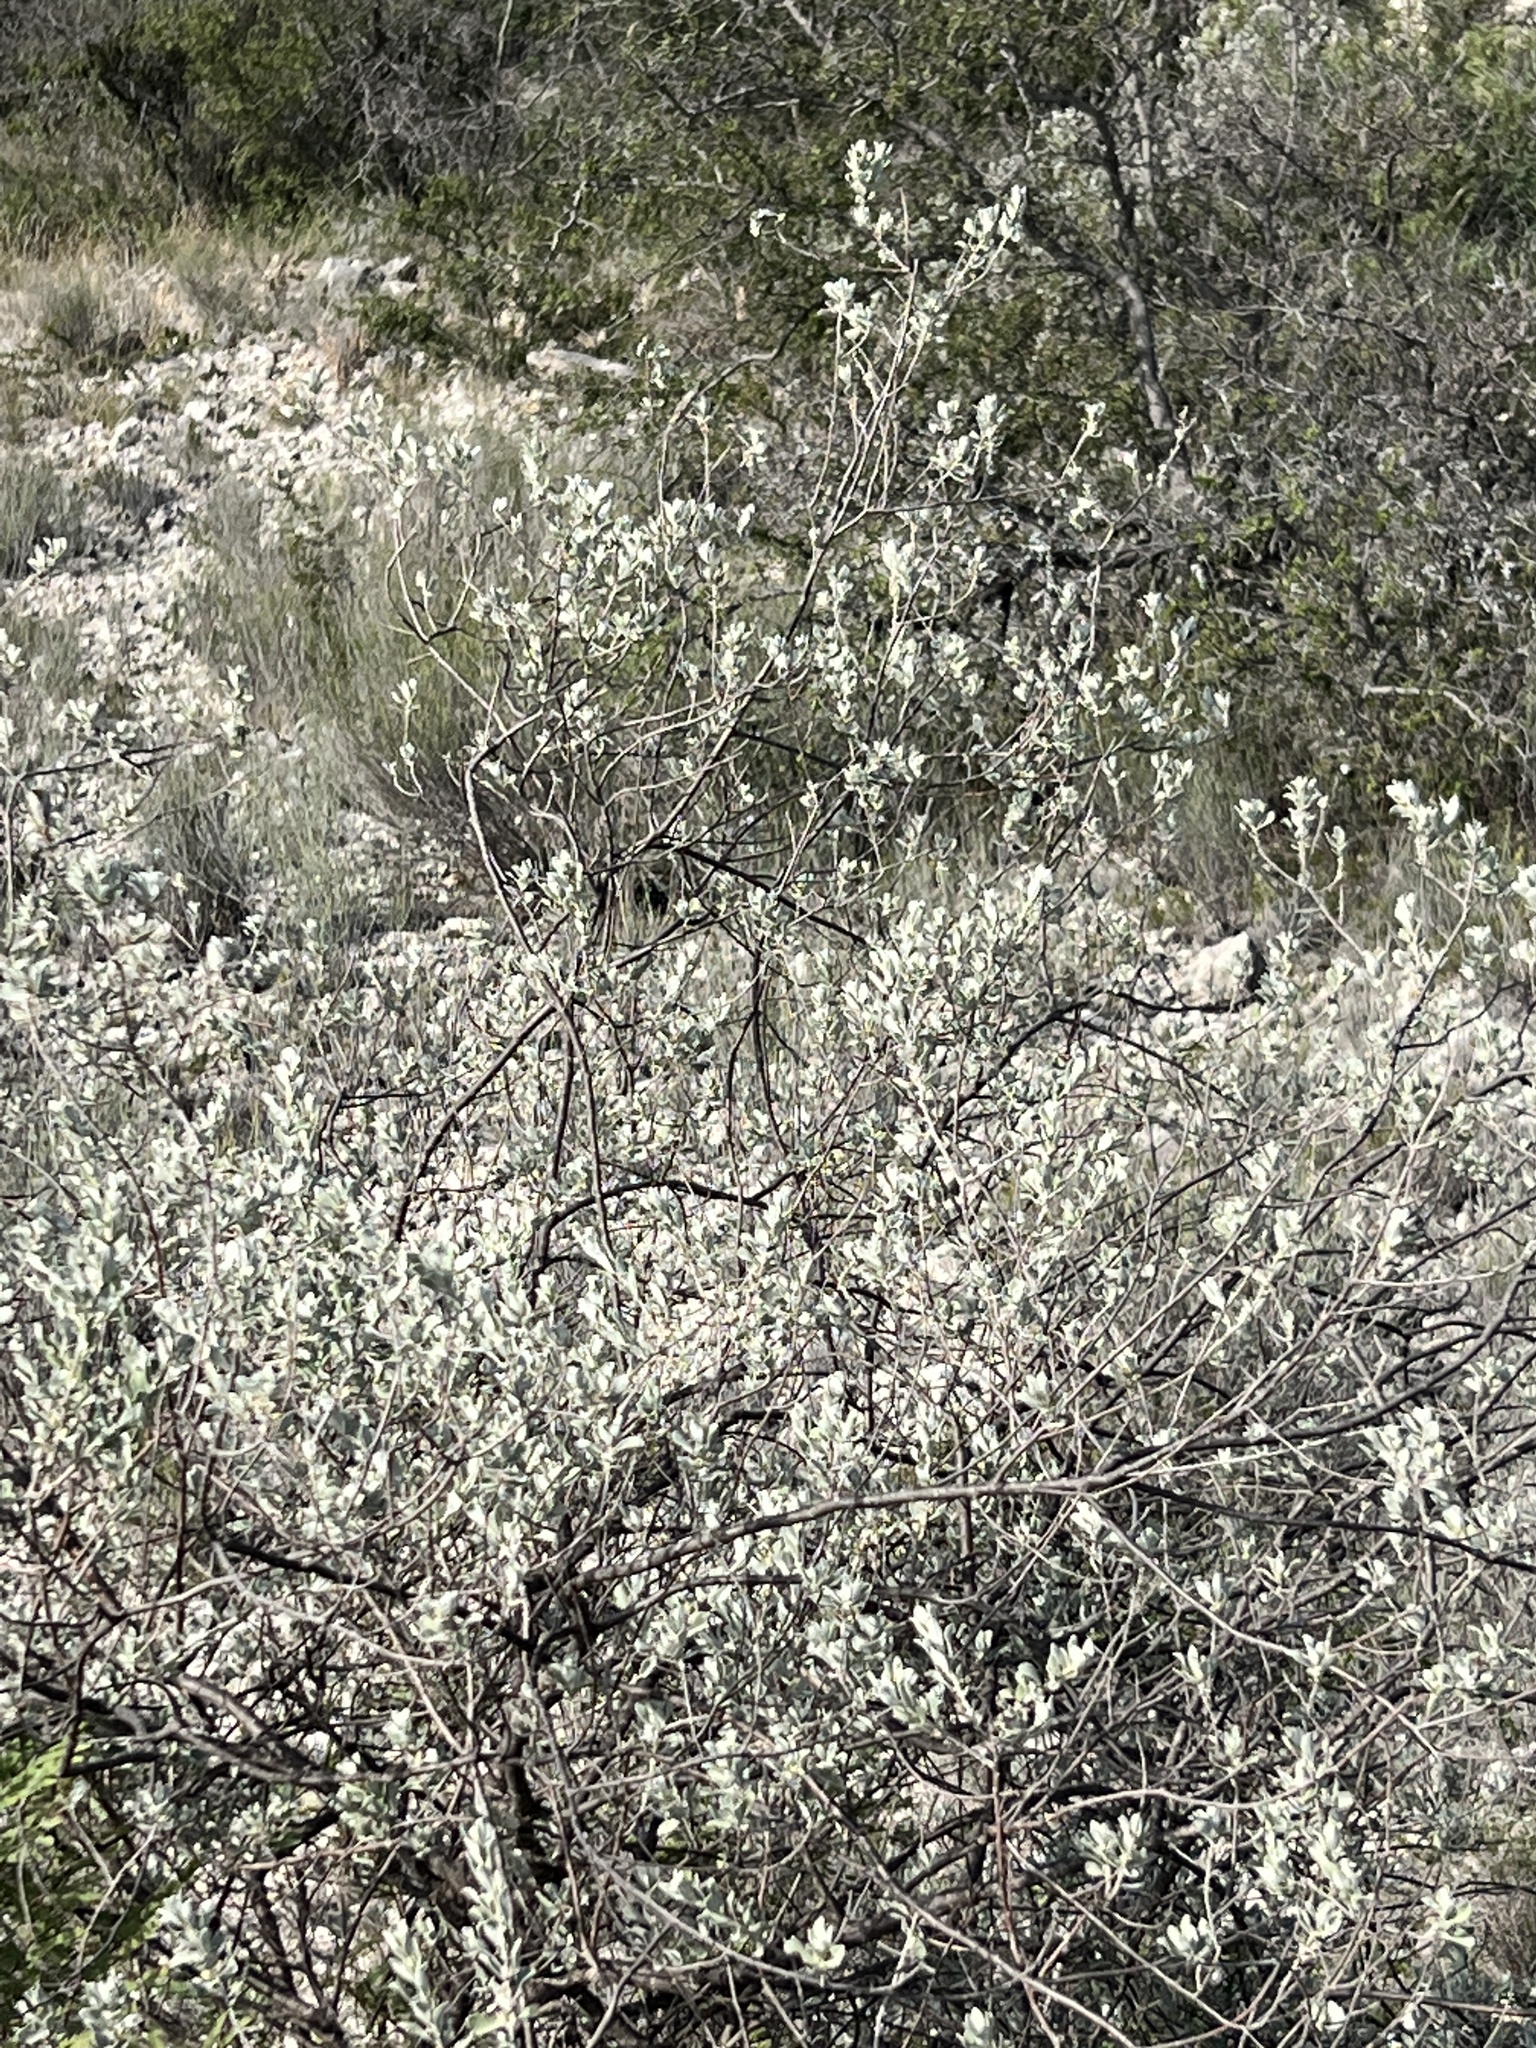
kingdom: Plantae
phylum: Tracheophyta
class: Magnoliopsida
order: Lamiales
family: Scrophulariaceae
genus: Leucophyllum
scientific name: Leucophyllum frutescens
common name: Texas silverleaf
